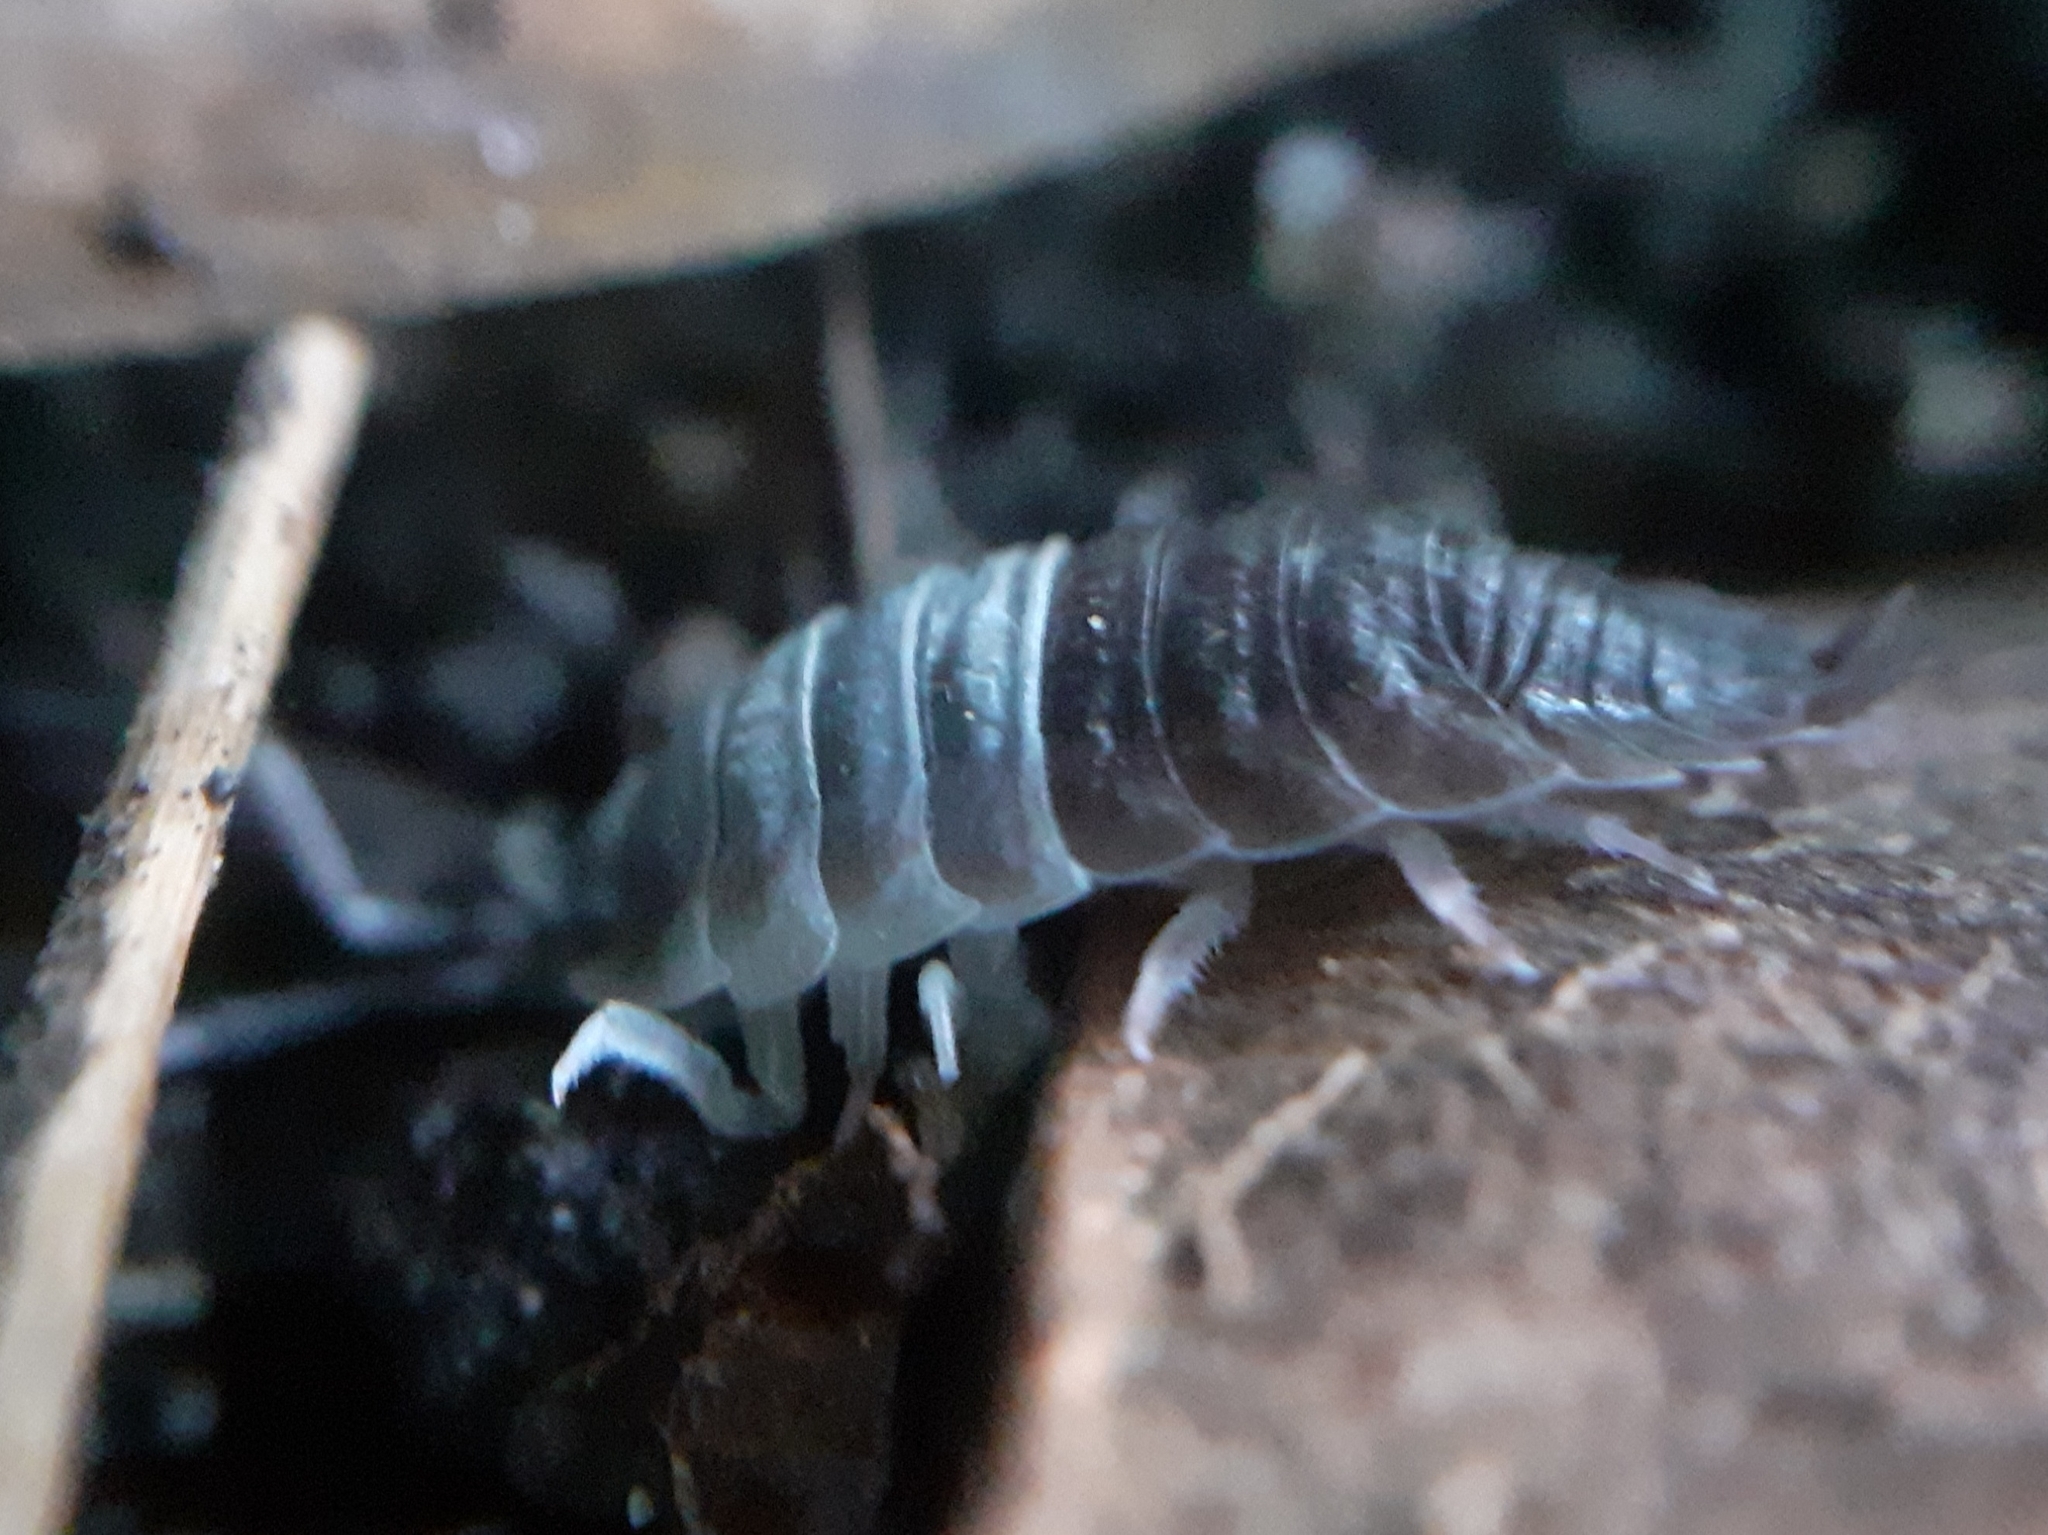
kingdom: Animalia
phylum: Arthropoda
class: Malacostraca
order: Isopoda
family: Porcellionidae
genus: Porcellio
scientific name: Porcellio scaber
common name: Common rough woodlouse
